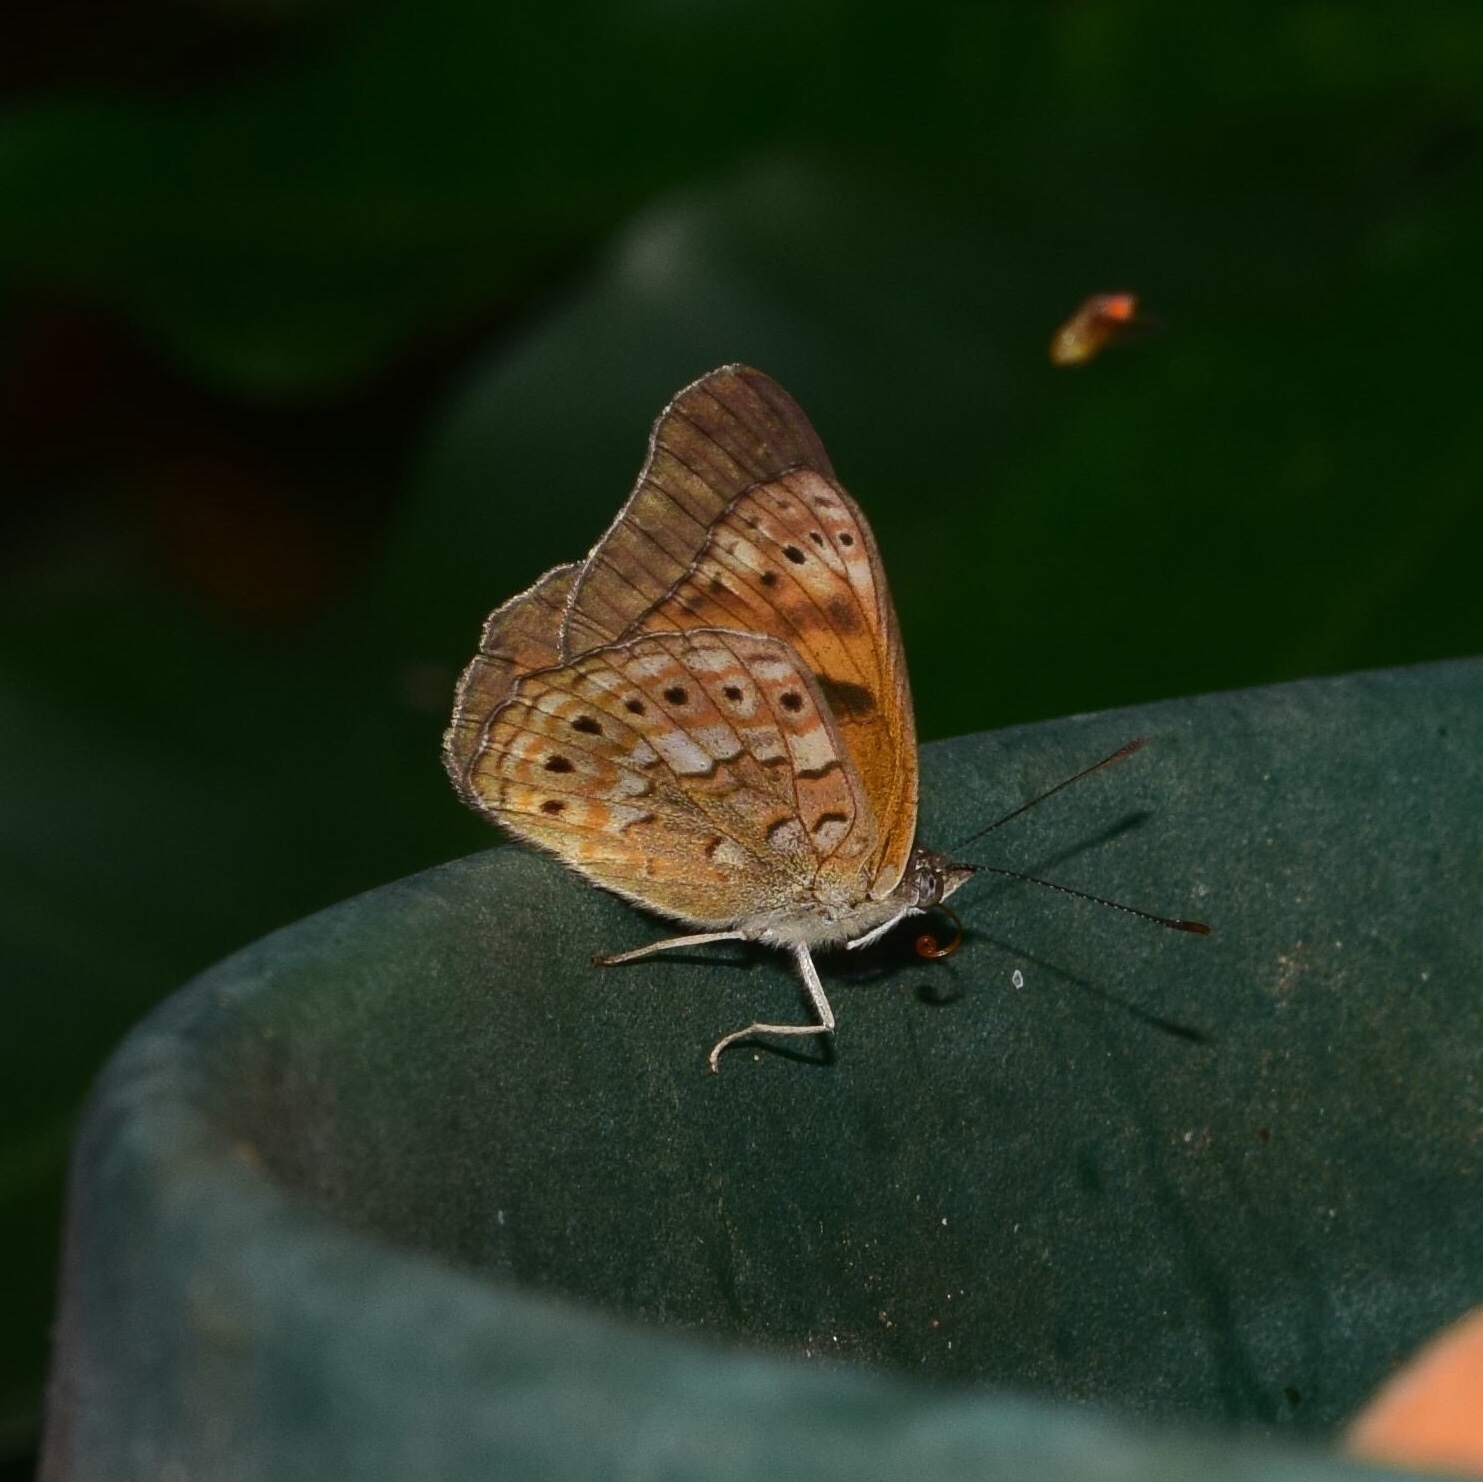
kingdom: Animalia
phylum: Arthropoda
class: Insecta
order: Lepidoptera
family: Nymphalidae
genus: Asterope
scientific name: Asterope boisduvali
